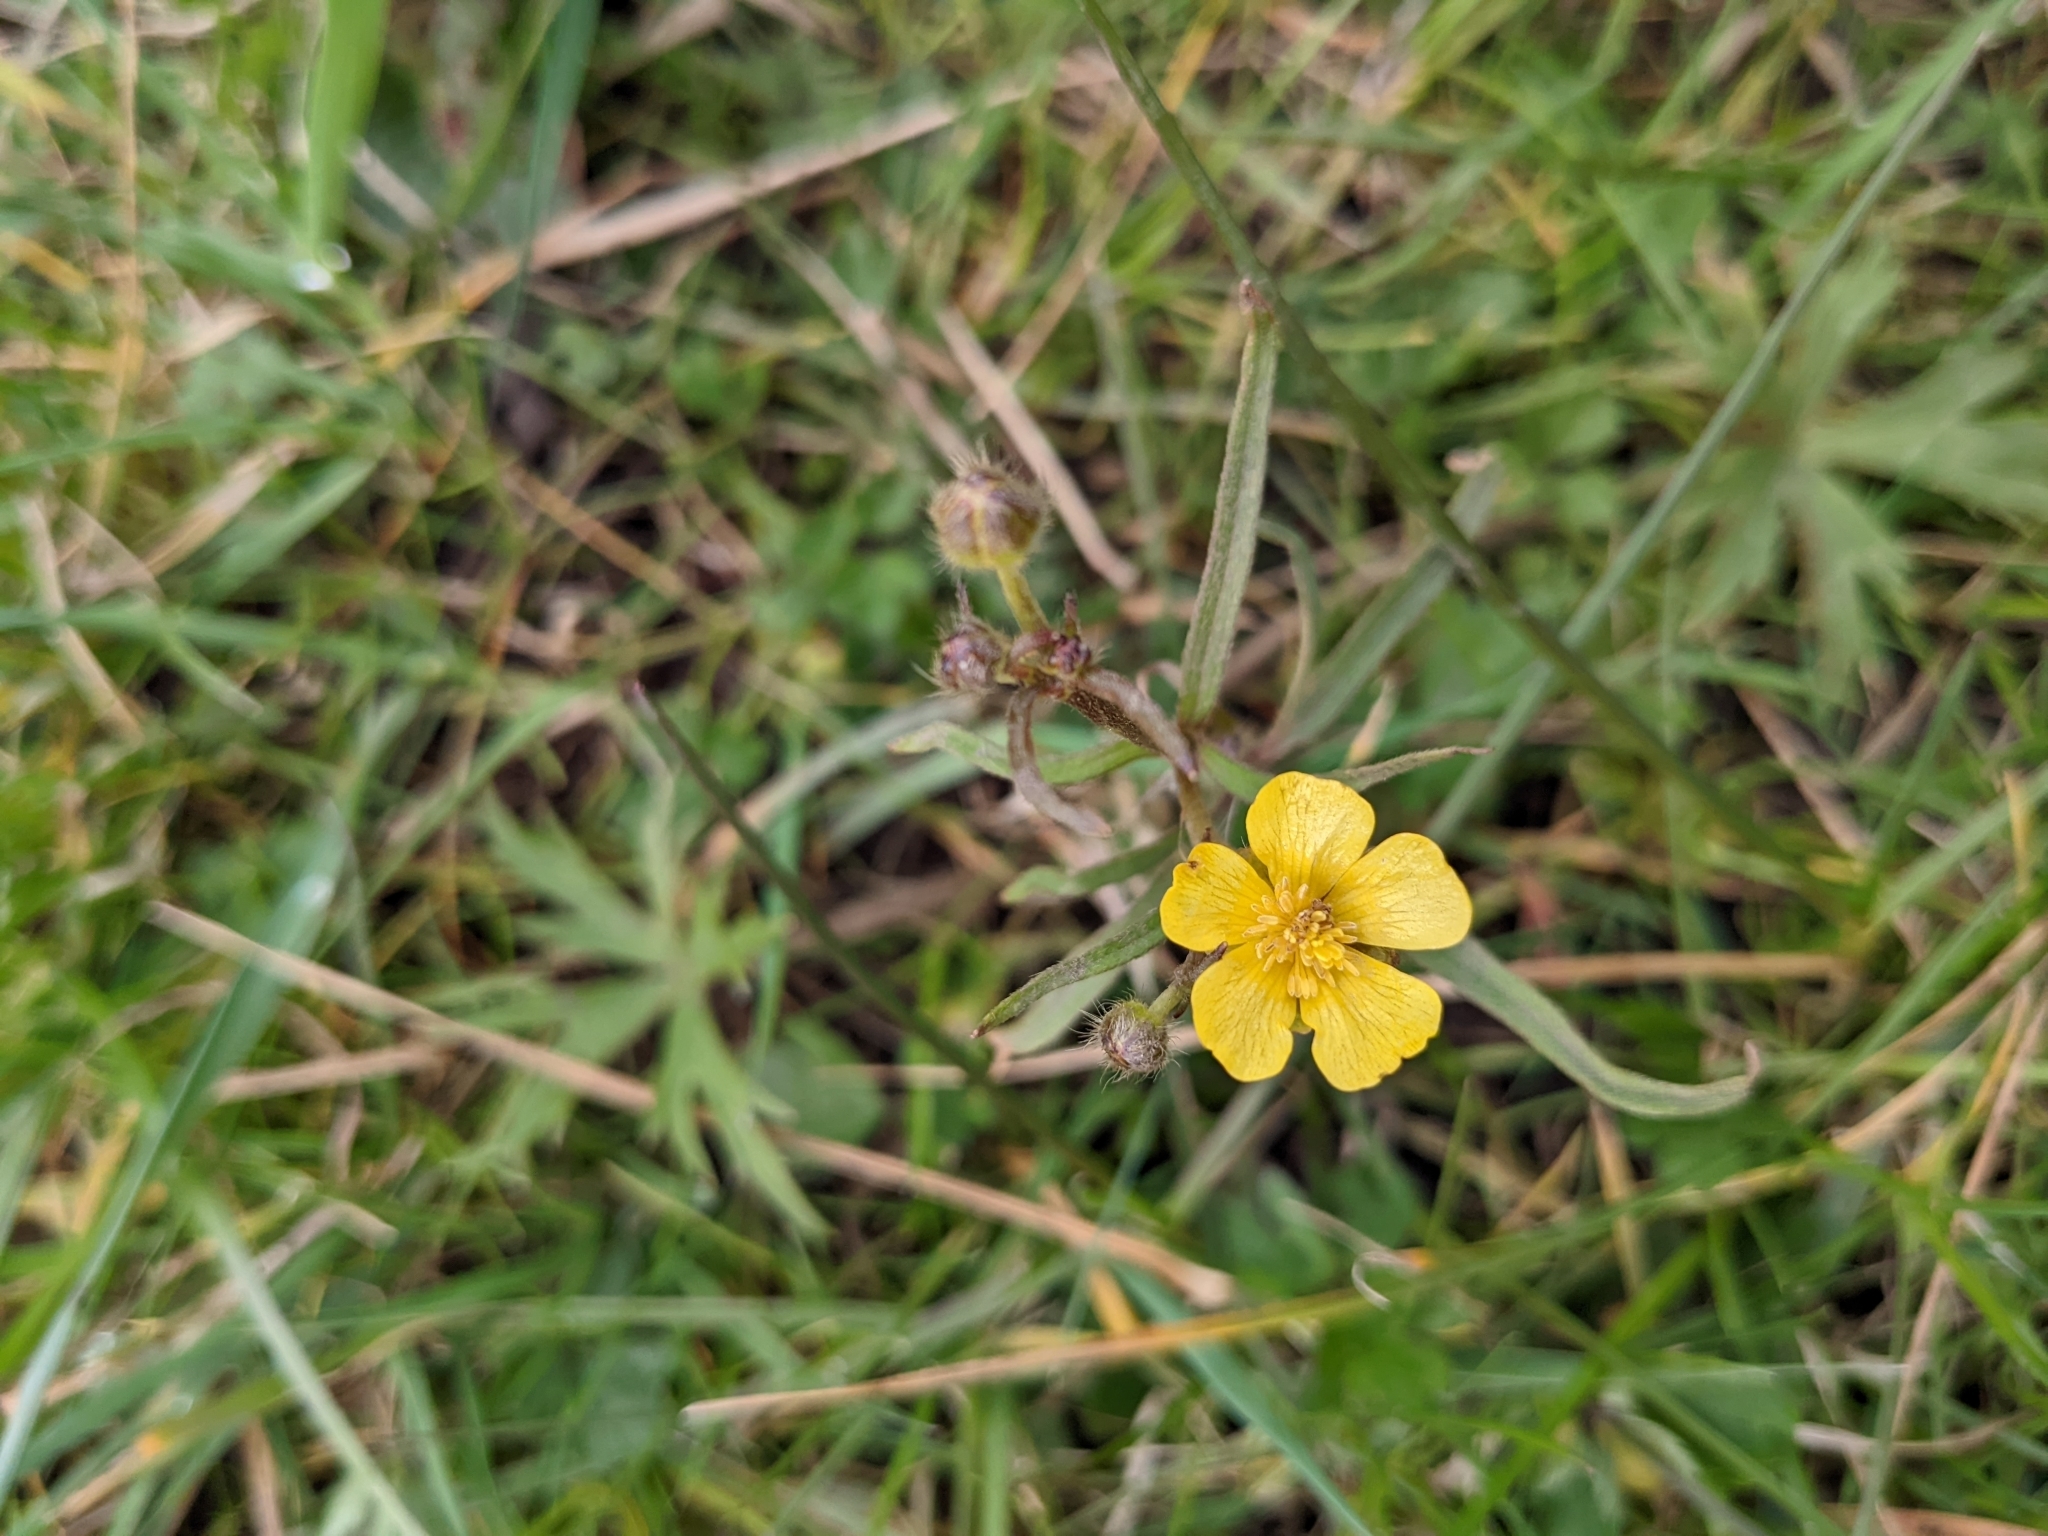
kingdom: Plantae
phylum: Tracheophyta
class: Magnoliopsida
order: Ranunculales
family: Ranunculaceae
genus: Ranunculus
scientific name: Ranunculus acris
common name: Meadow buttercup
